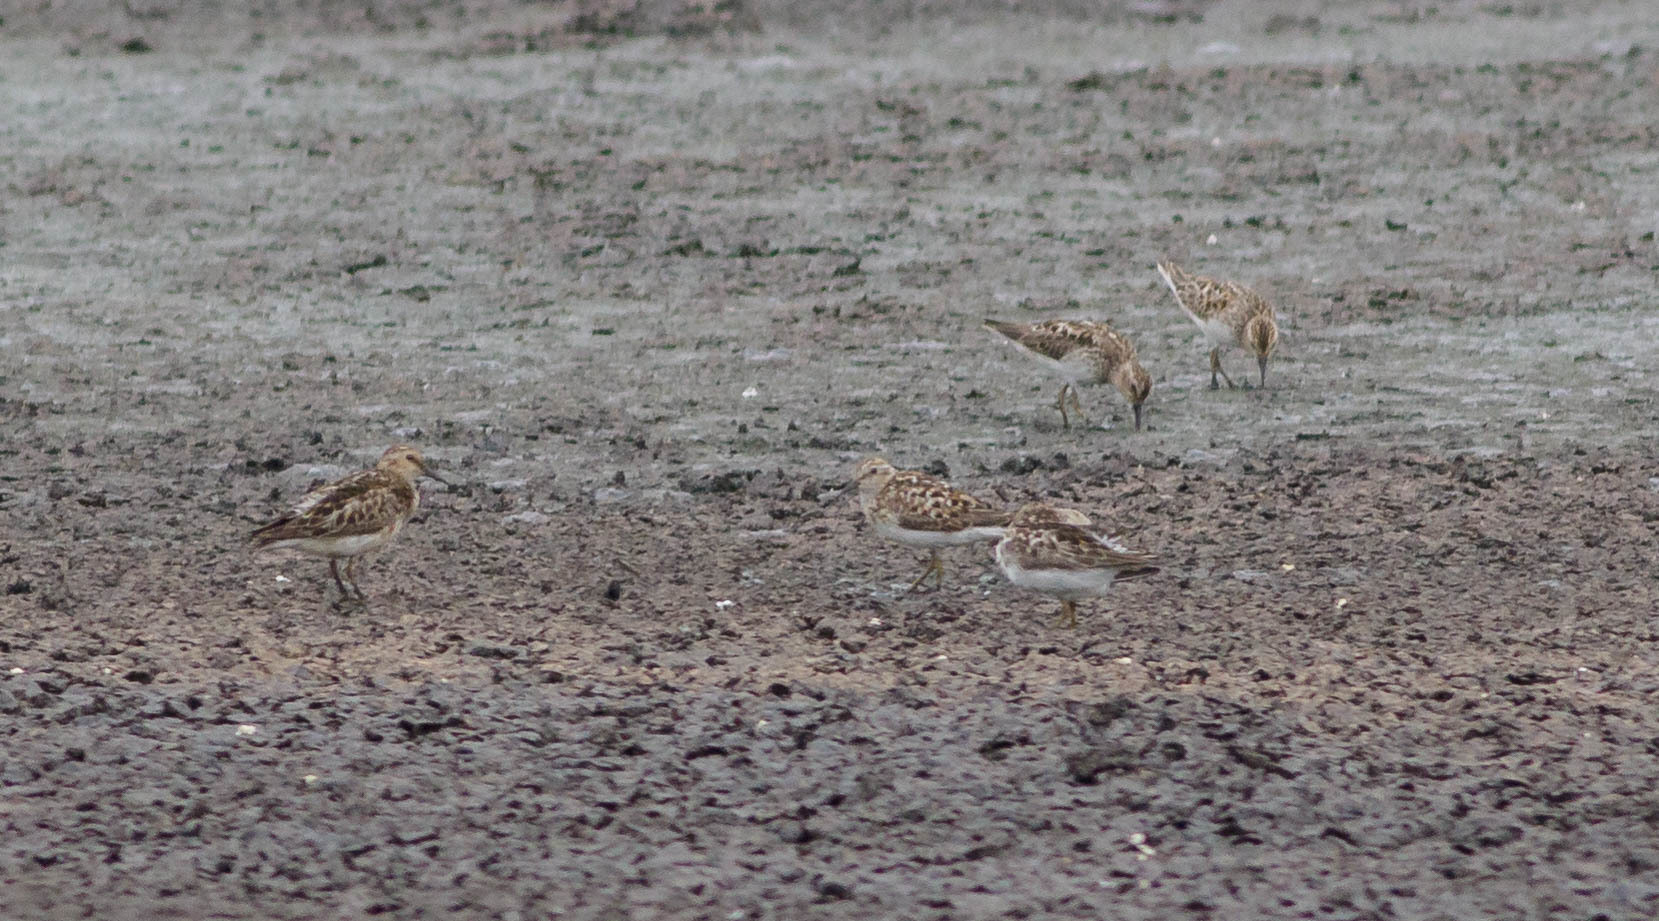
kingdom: Animalia
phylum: Chordata
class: Aves
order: Charadriiformes
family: Scolopacidae
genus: Calidris
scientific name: Calidris minutilla
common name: Least sandpiper
